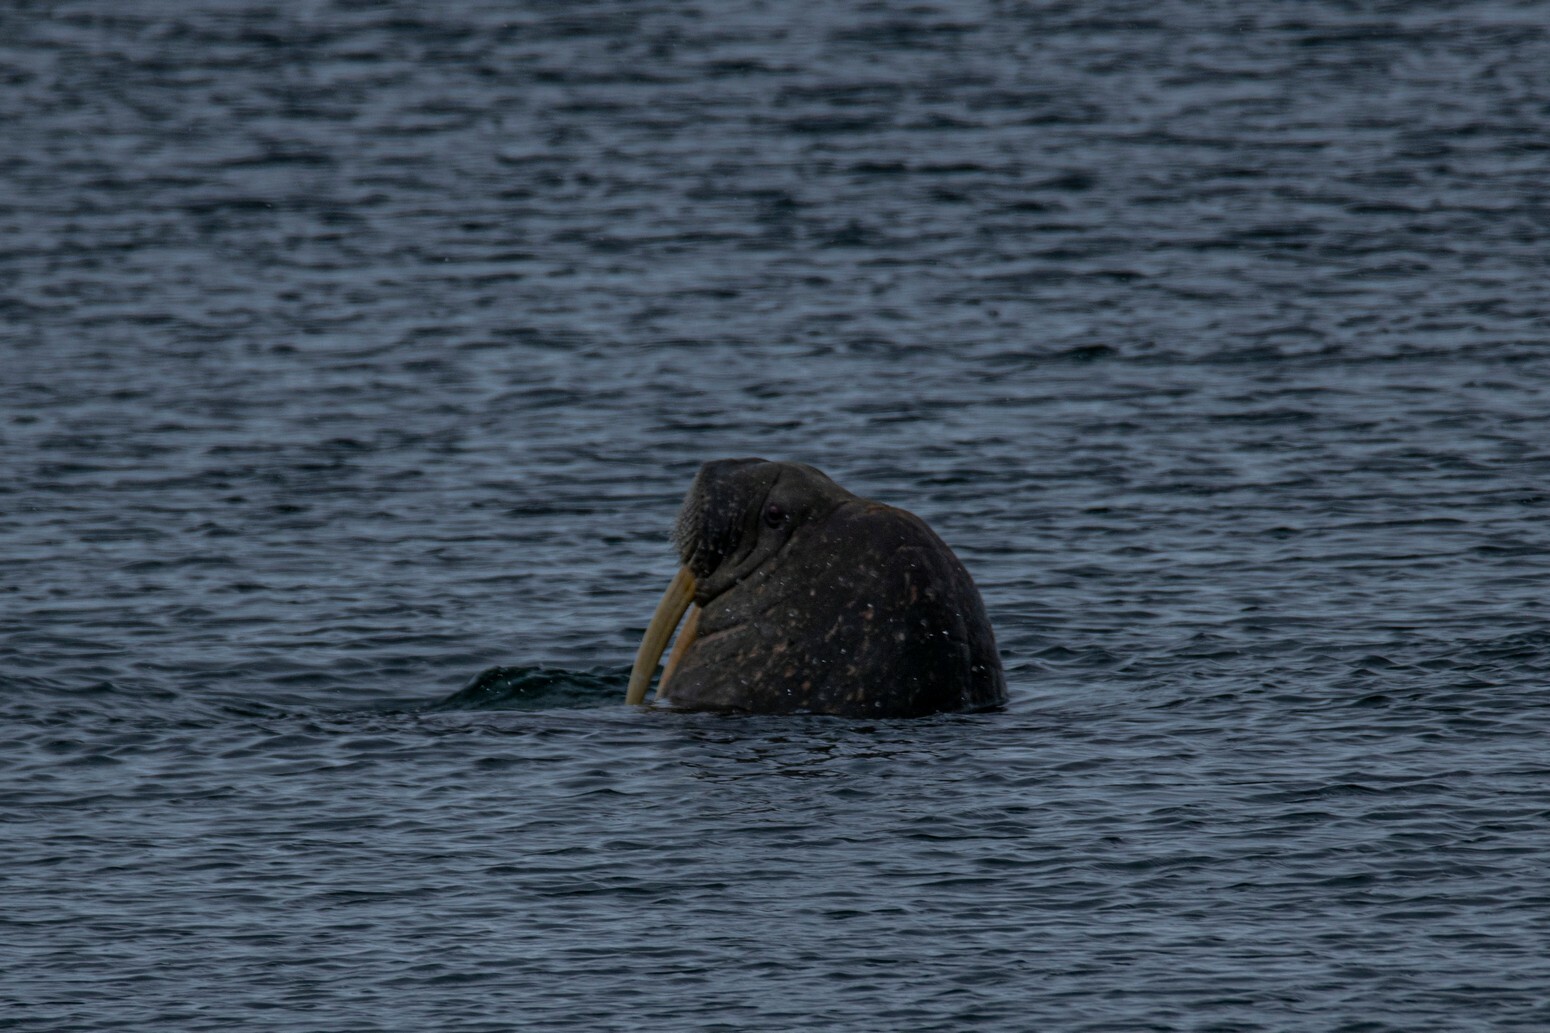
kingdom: Animalia
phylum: Chordata
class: Mammalia
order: Carnivora
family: Odobenidae
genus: Odobenus
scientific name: Odobenus rosmarus
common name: Walrus
